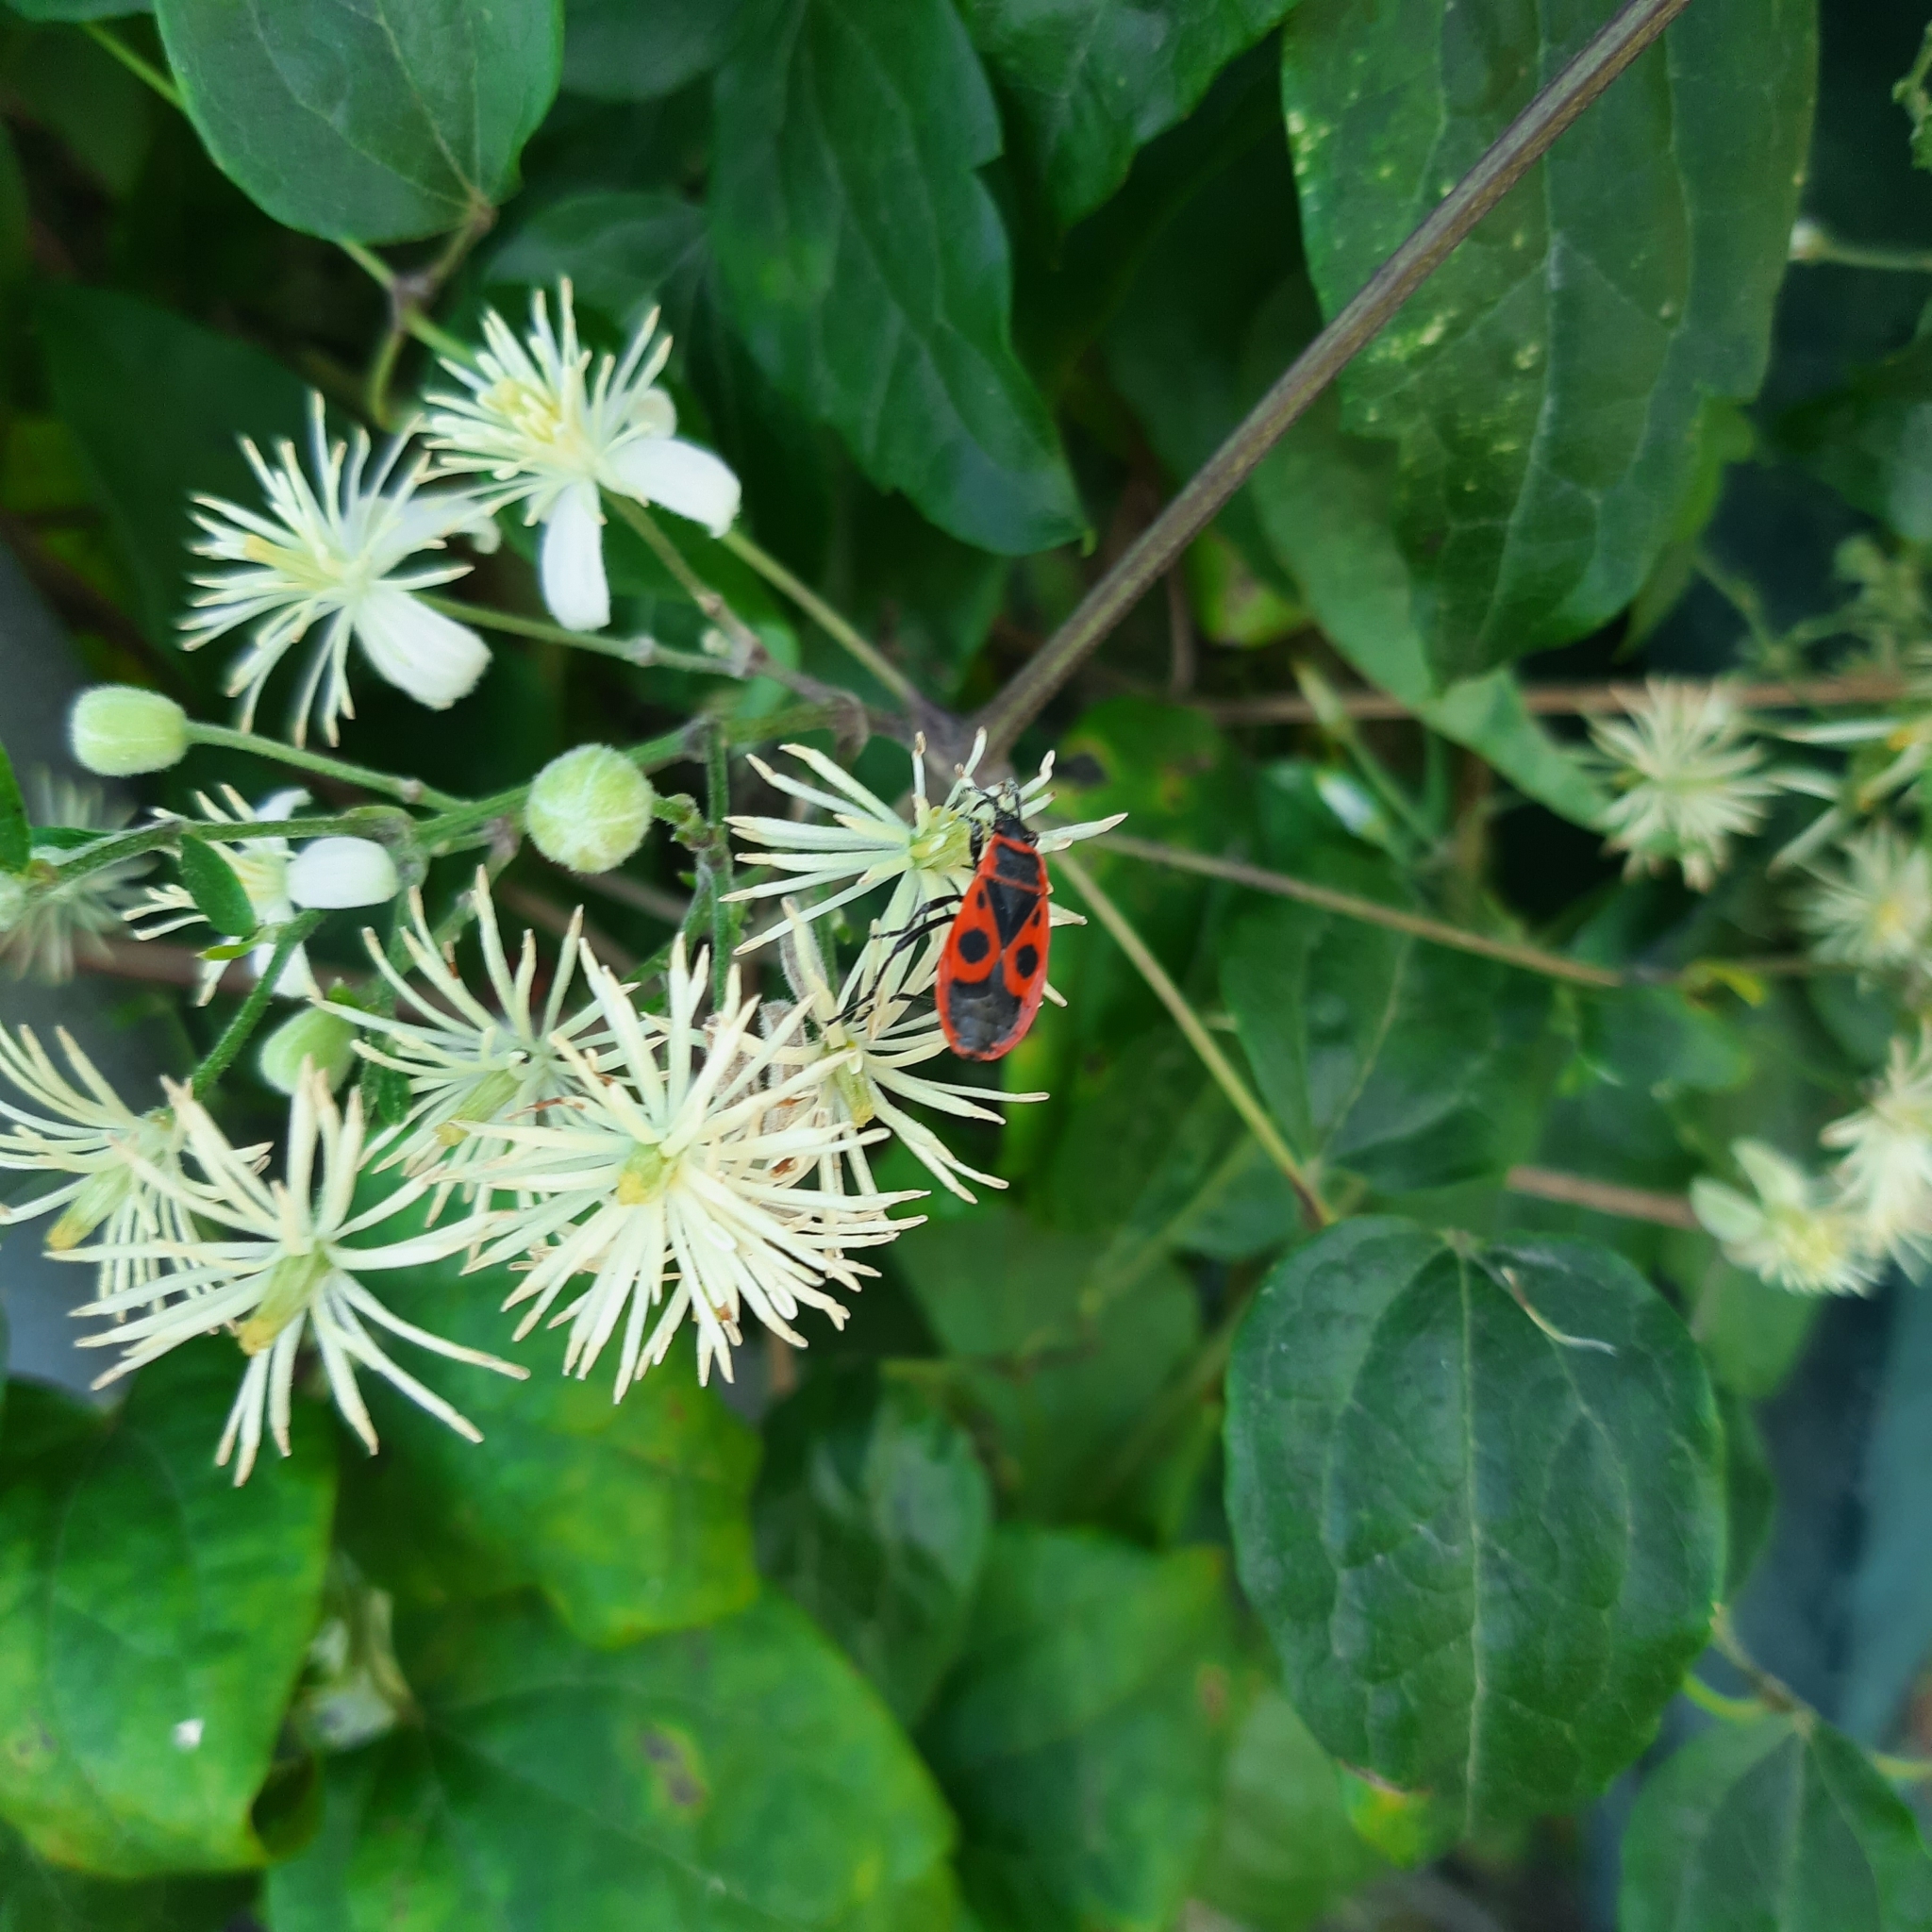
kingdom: Animalia
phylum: Arthropoda
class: Insecta
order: Hemiptera
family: Pyrrhocoridae
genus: Pyrrhocoris
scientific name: Pyrrhocoris apterus
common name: Firebug
